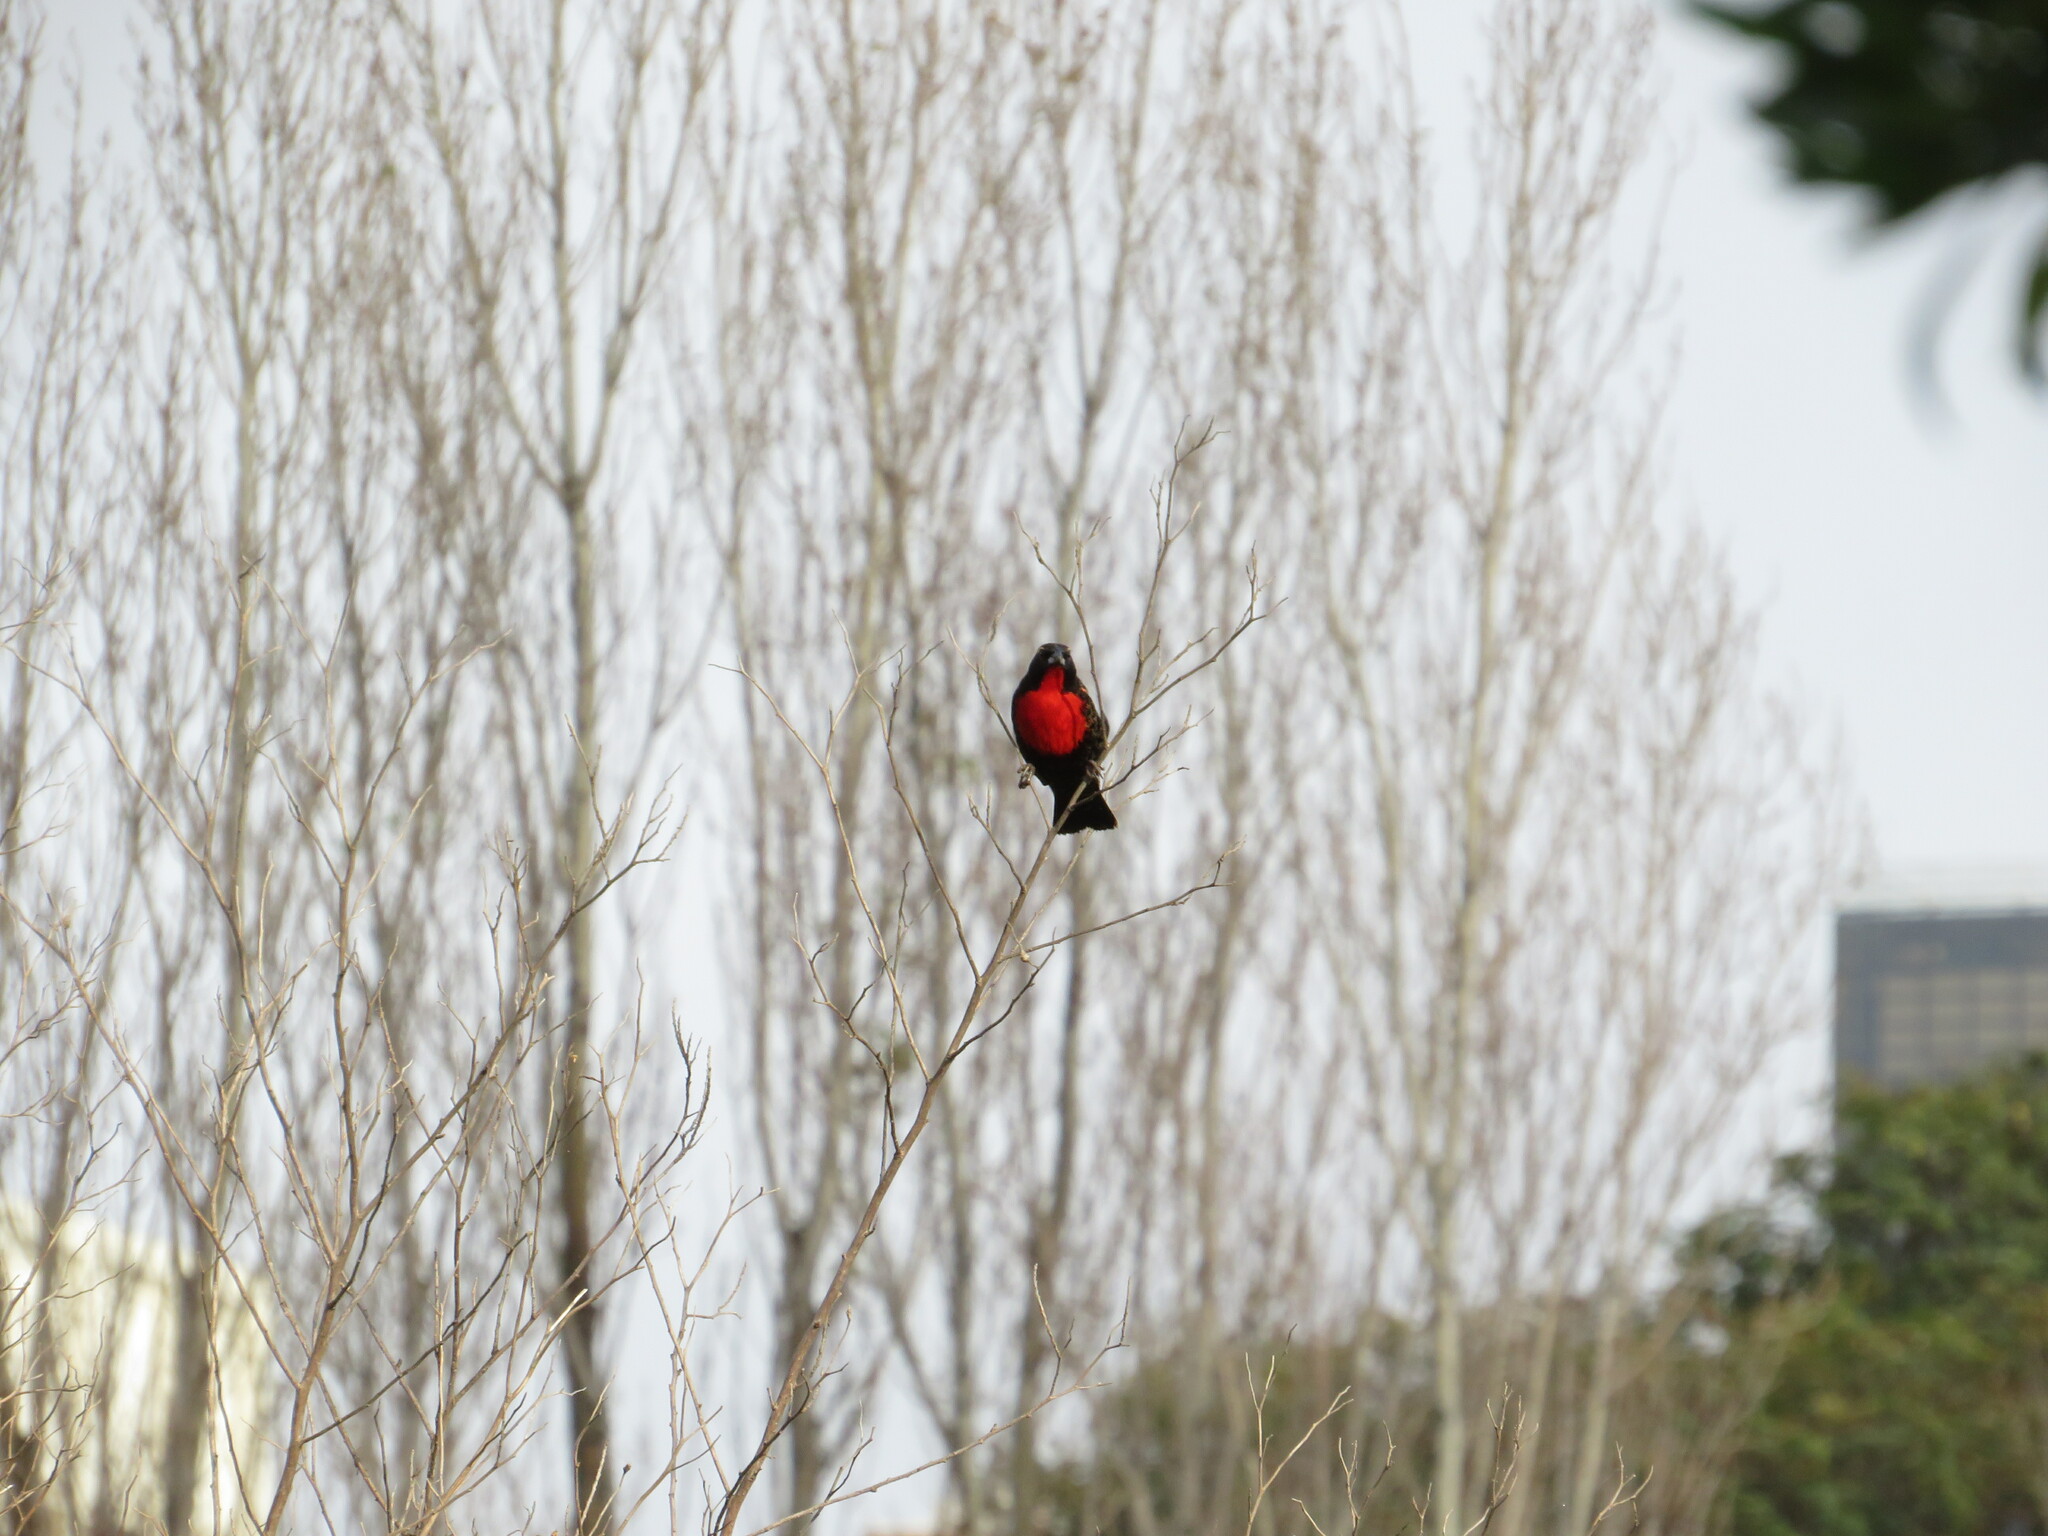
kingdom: Animalia
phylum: Chordata
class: Aves
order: Passeriformes
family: Icteridae
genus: Sturnella
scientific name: Sturnella superciliaris
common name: White-browed blackbird
